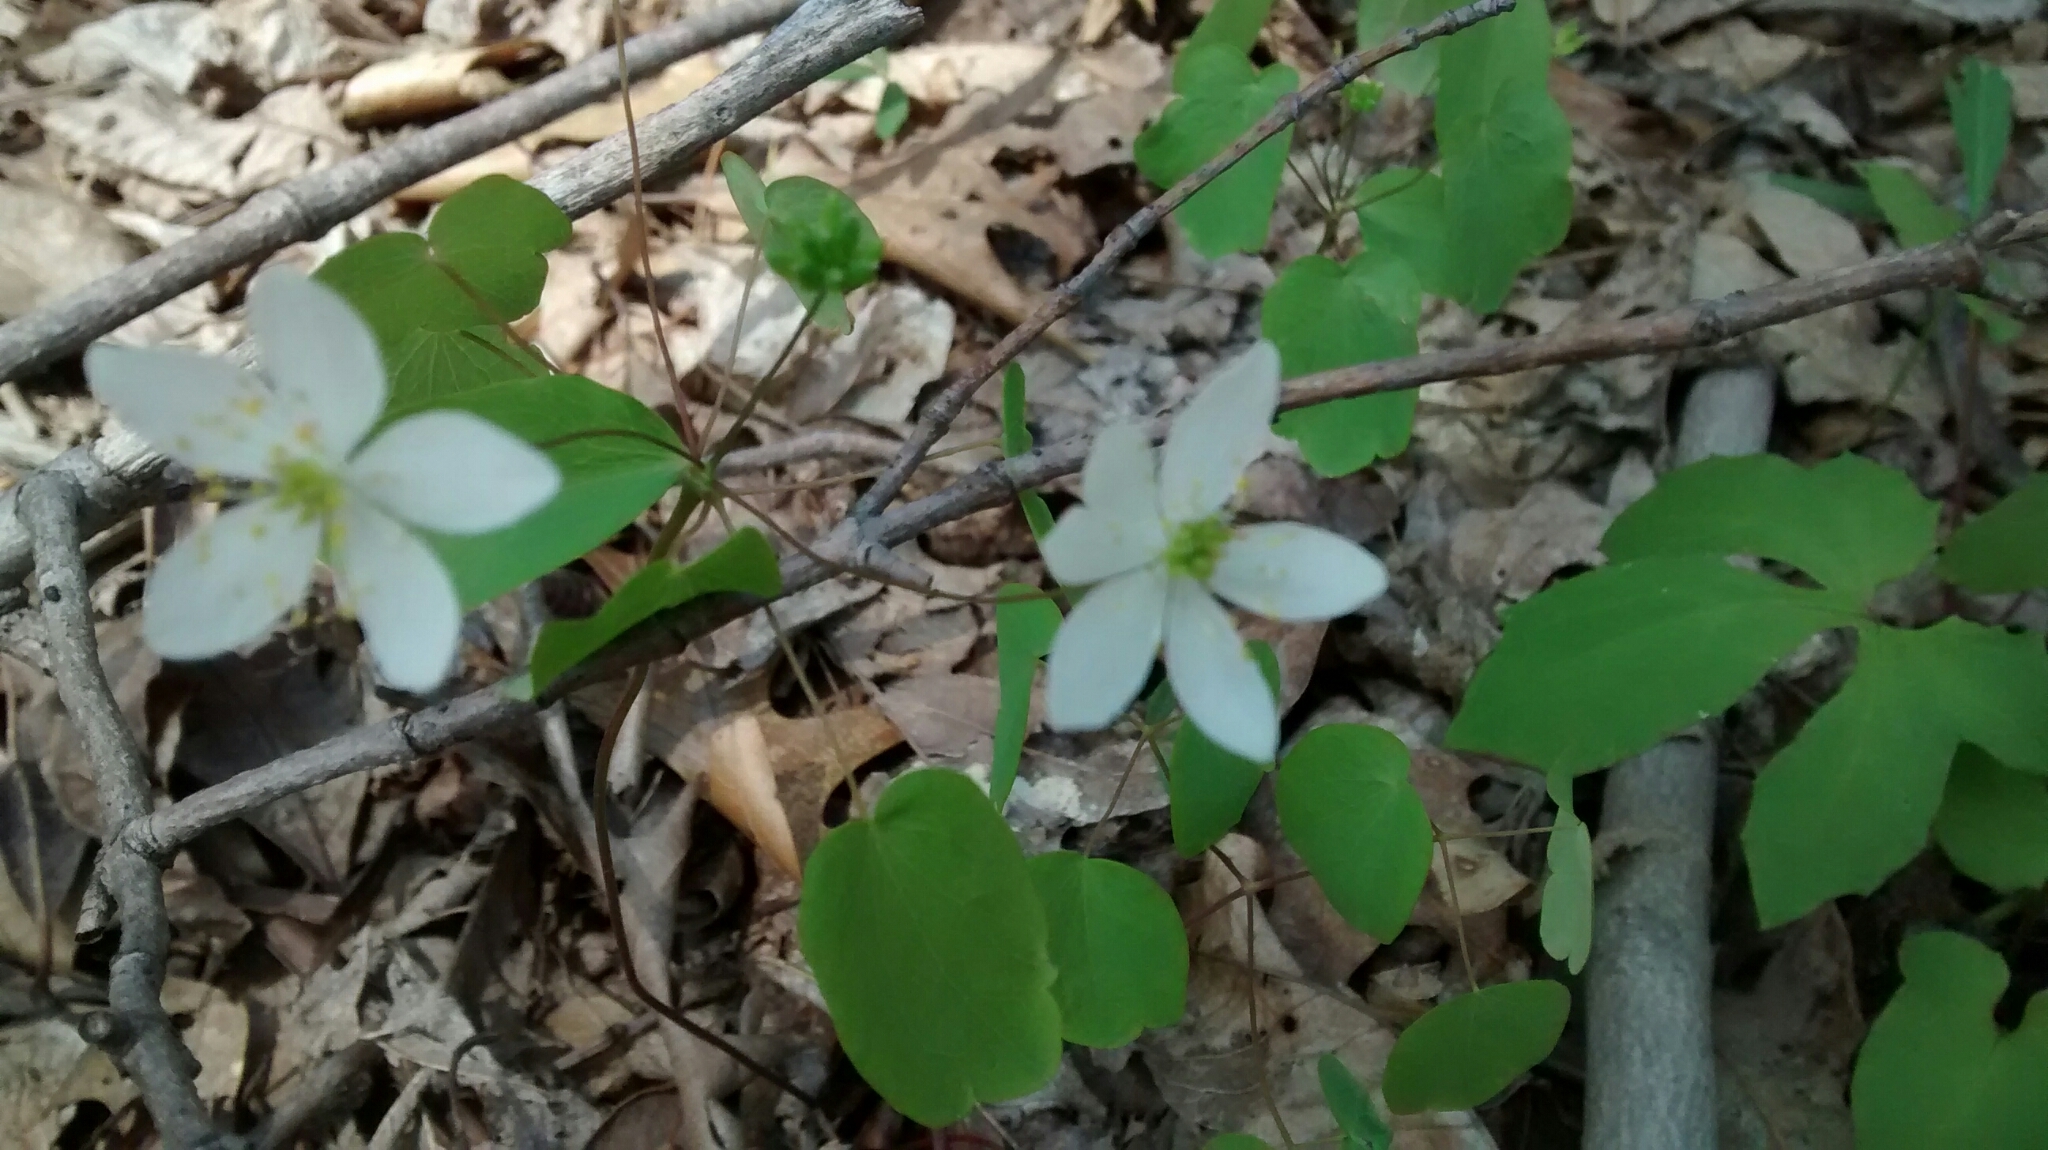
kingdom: Plantae
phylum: Tracheophyta
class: Magnoliopsida
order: Ranunculales
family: Ranunculaceae
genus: Thalictrum
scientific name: Thalictrum thalictroides
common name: Rue-anemone
